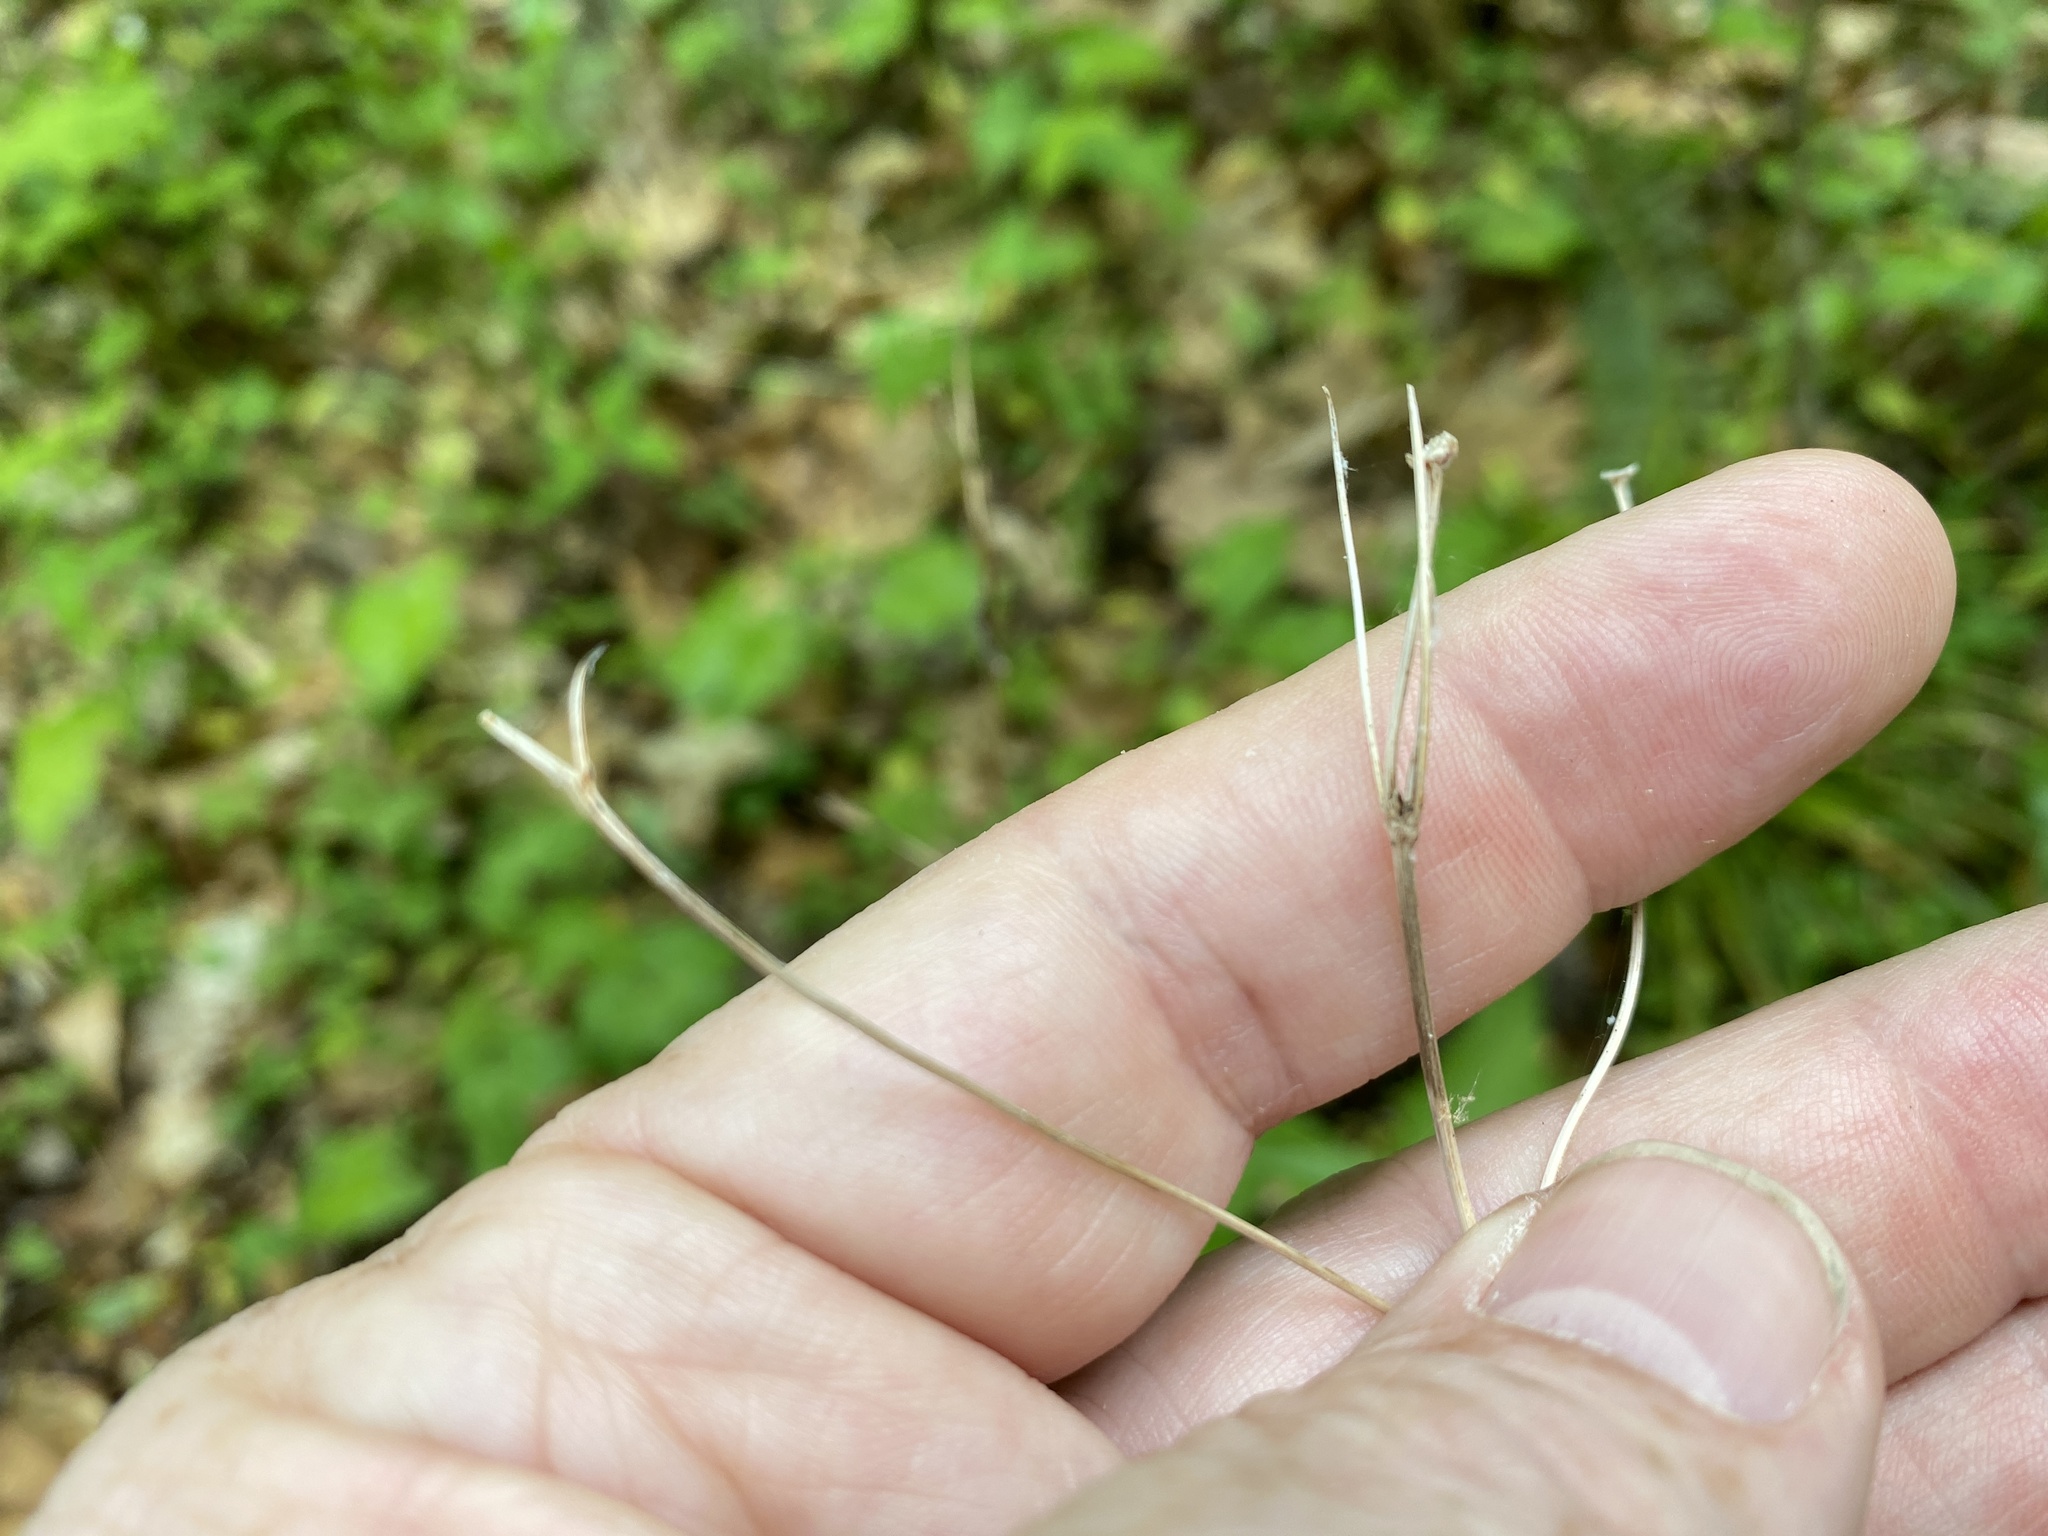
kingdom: Plantae
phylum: Tracheophyta
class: Magnoliopsida
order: Asterales
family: Asteraceae
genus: Coreopsis
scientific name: Coreopsis latifolia
